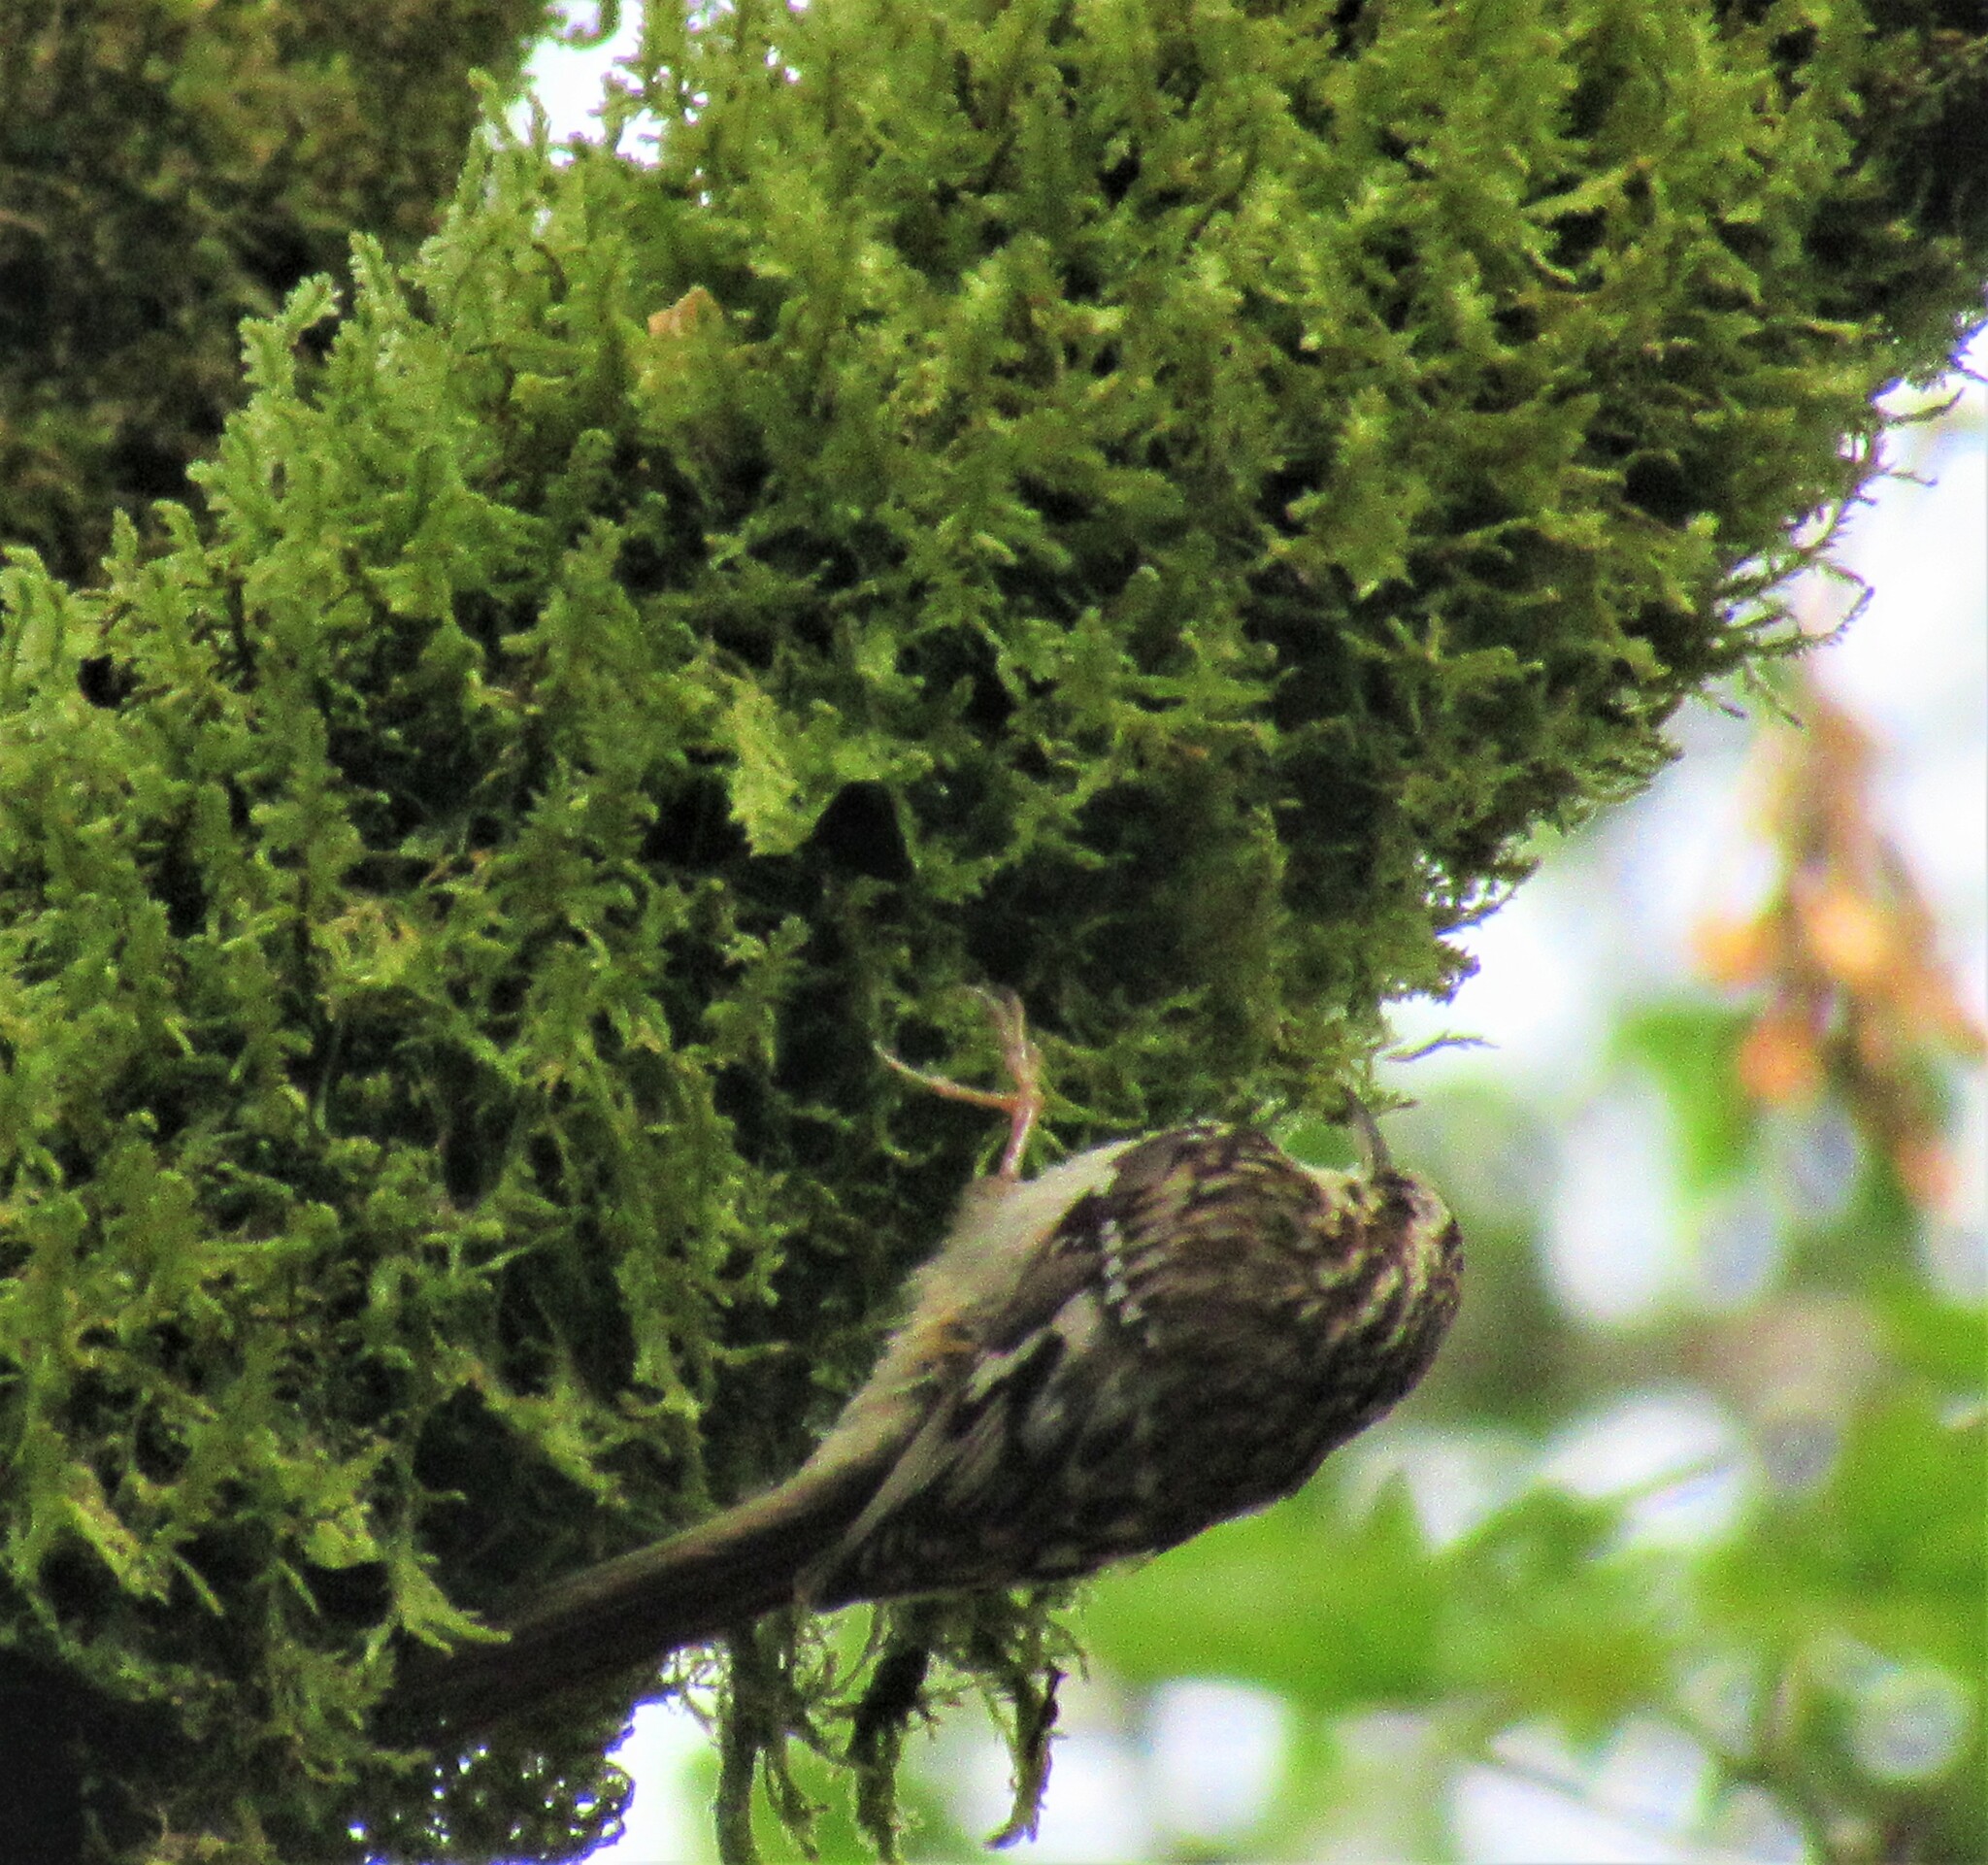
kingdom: Animalia
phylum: Chordata
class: Aves
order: Passeriformes
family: Certhiidae
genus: Certhia
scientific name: Certhia americana
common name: Brown creeper
